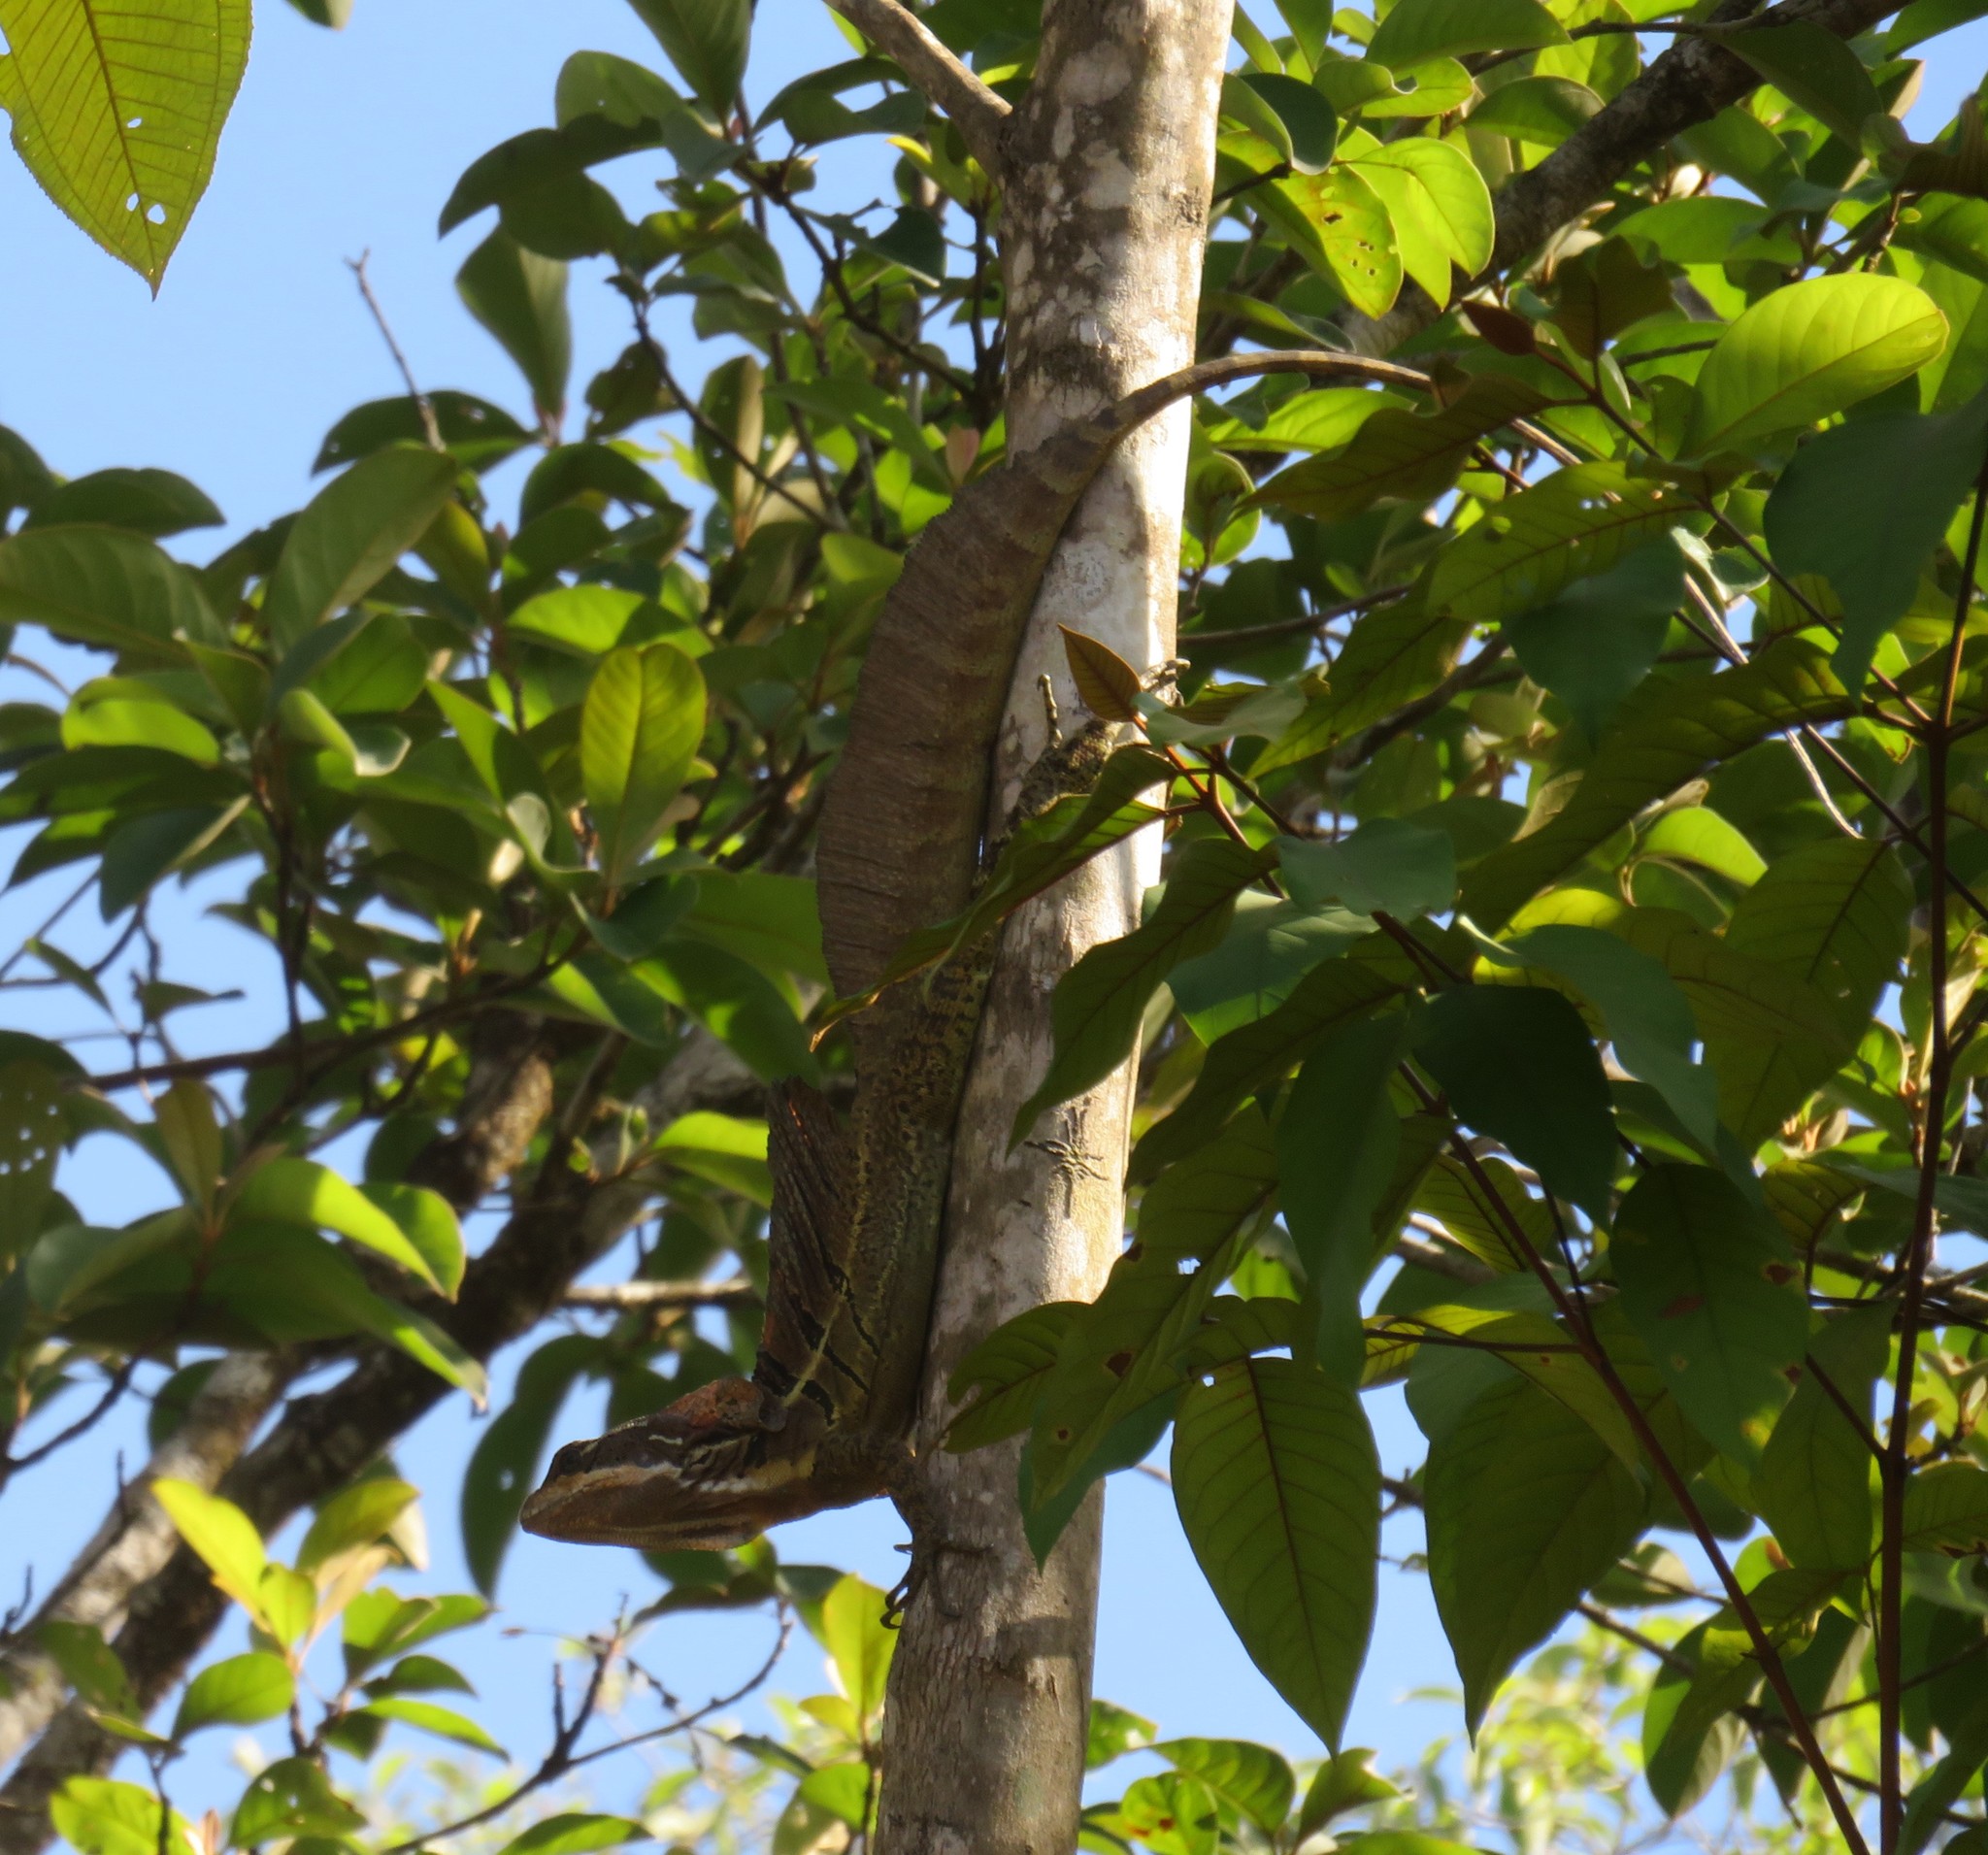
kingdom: Animalia
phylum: Chordata
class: Squamata
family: Corytophanidae
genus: Basiliscus
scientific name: Basiliscus basiliscus
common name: Common basilisk
